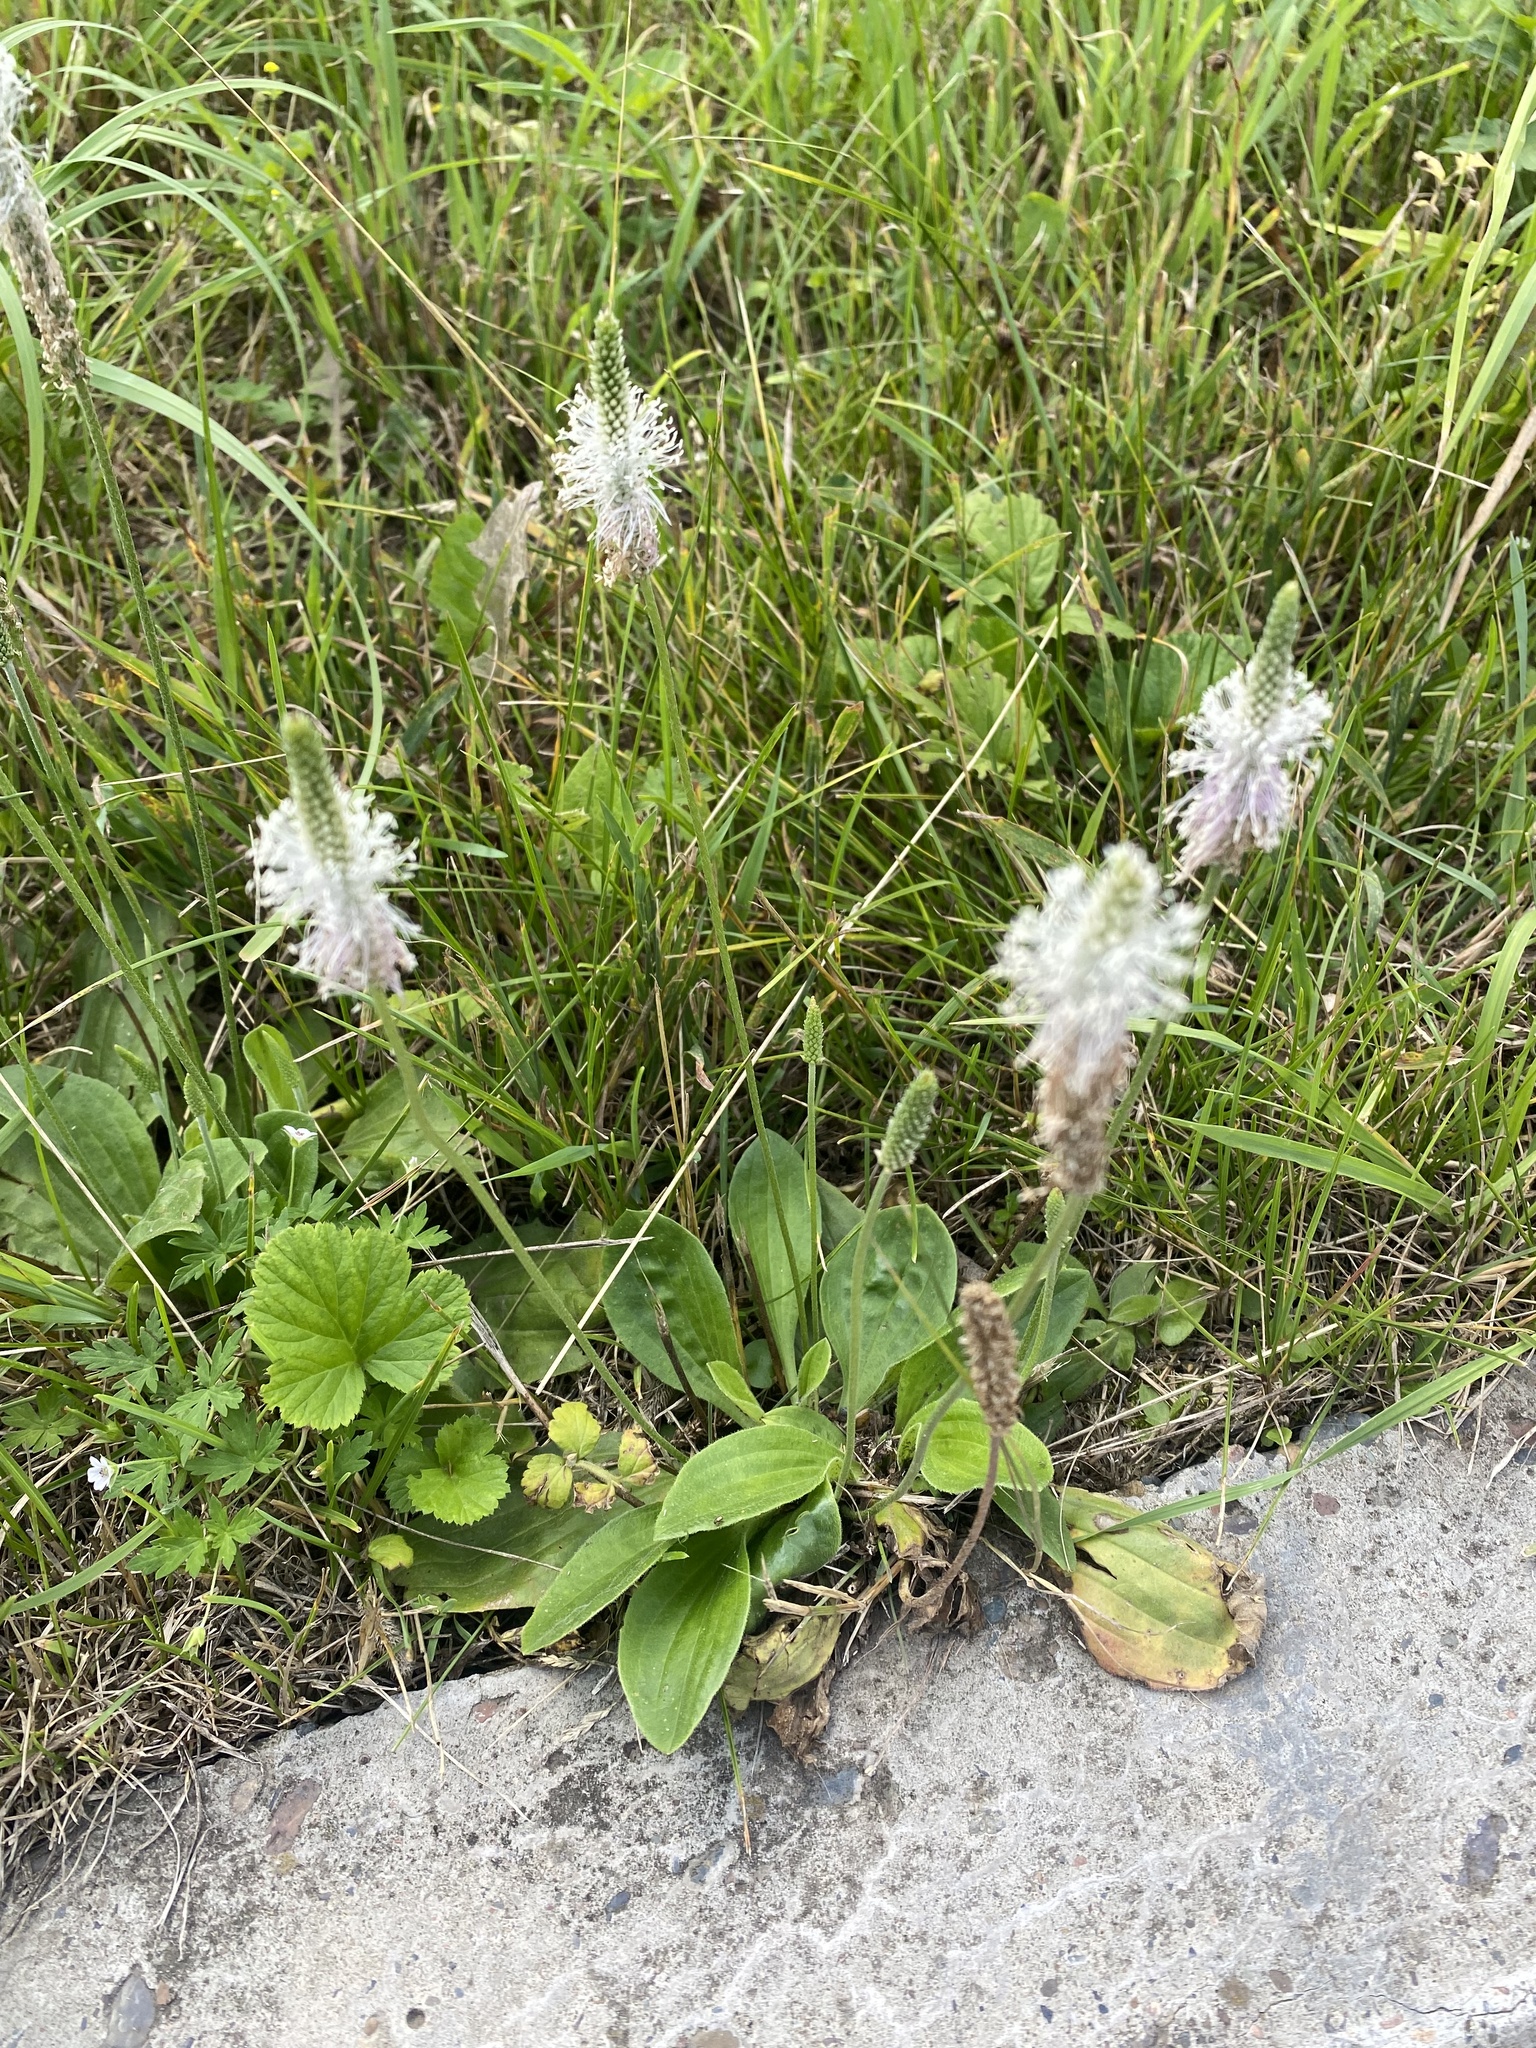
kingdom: Plantae
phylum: Tracheophyta
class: Magnoliopsida
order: Lamiales
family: Plantaginaceae
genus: Plantago
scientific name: Plantago media
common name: Hoary plantain
